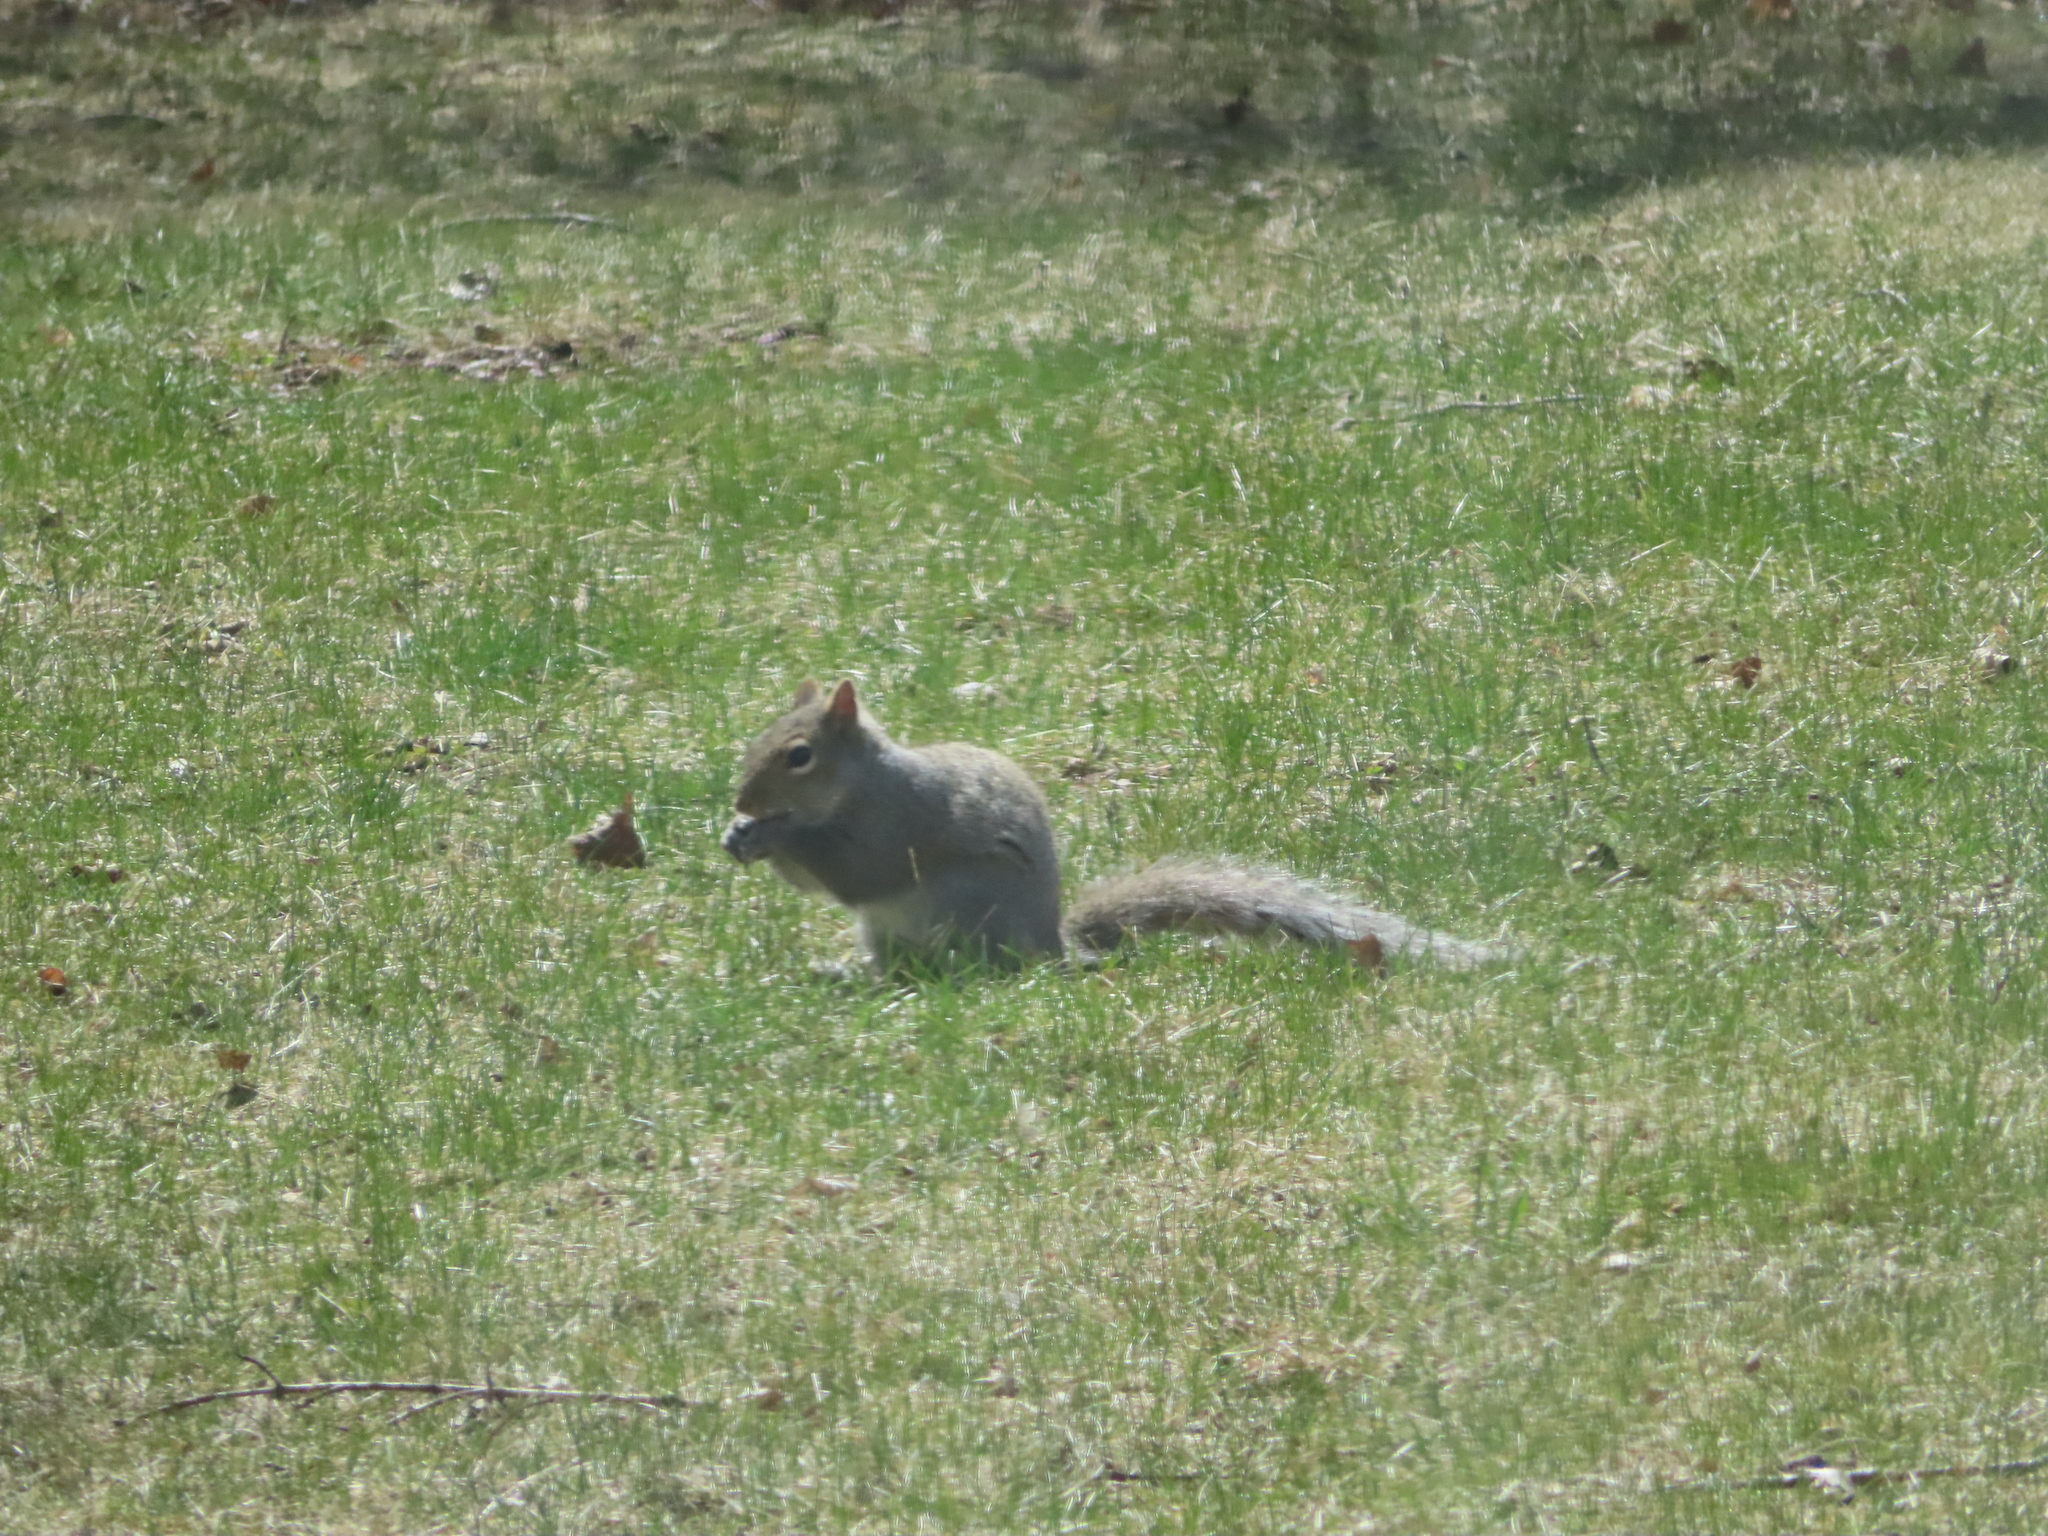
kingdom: Animalia
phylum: Chordata
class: Mammalia
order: Rodentia
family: Sciuridae
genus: Sciurus
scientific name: Sciurus carolinensis
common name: Eastern gray squirrel
